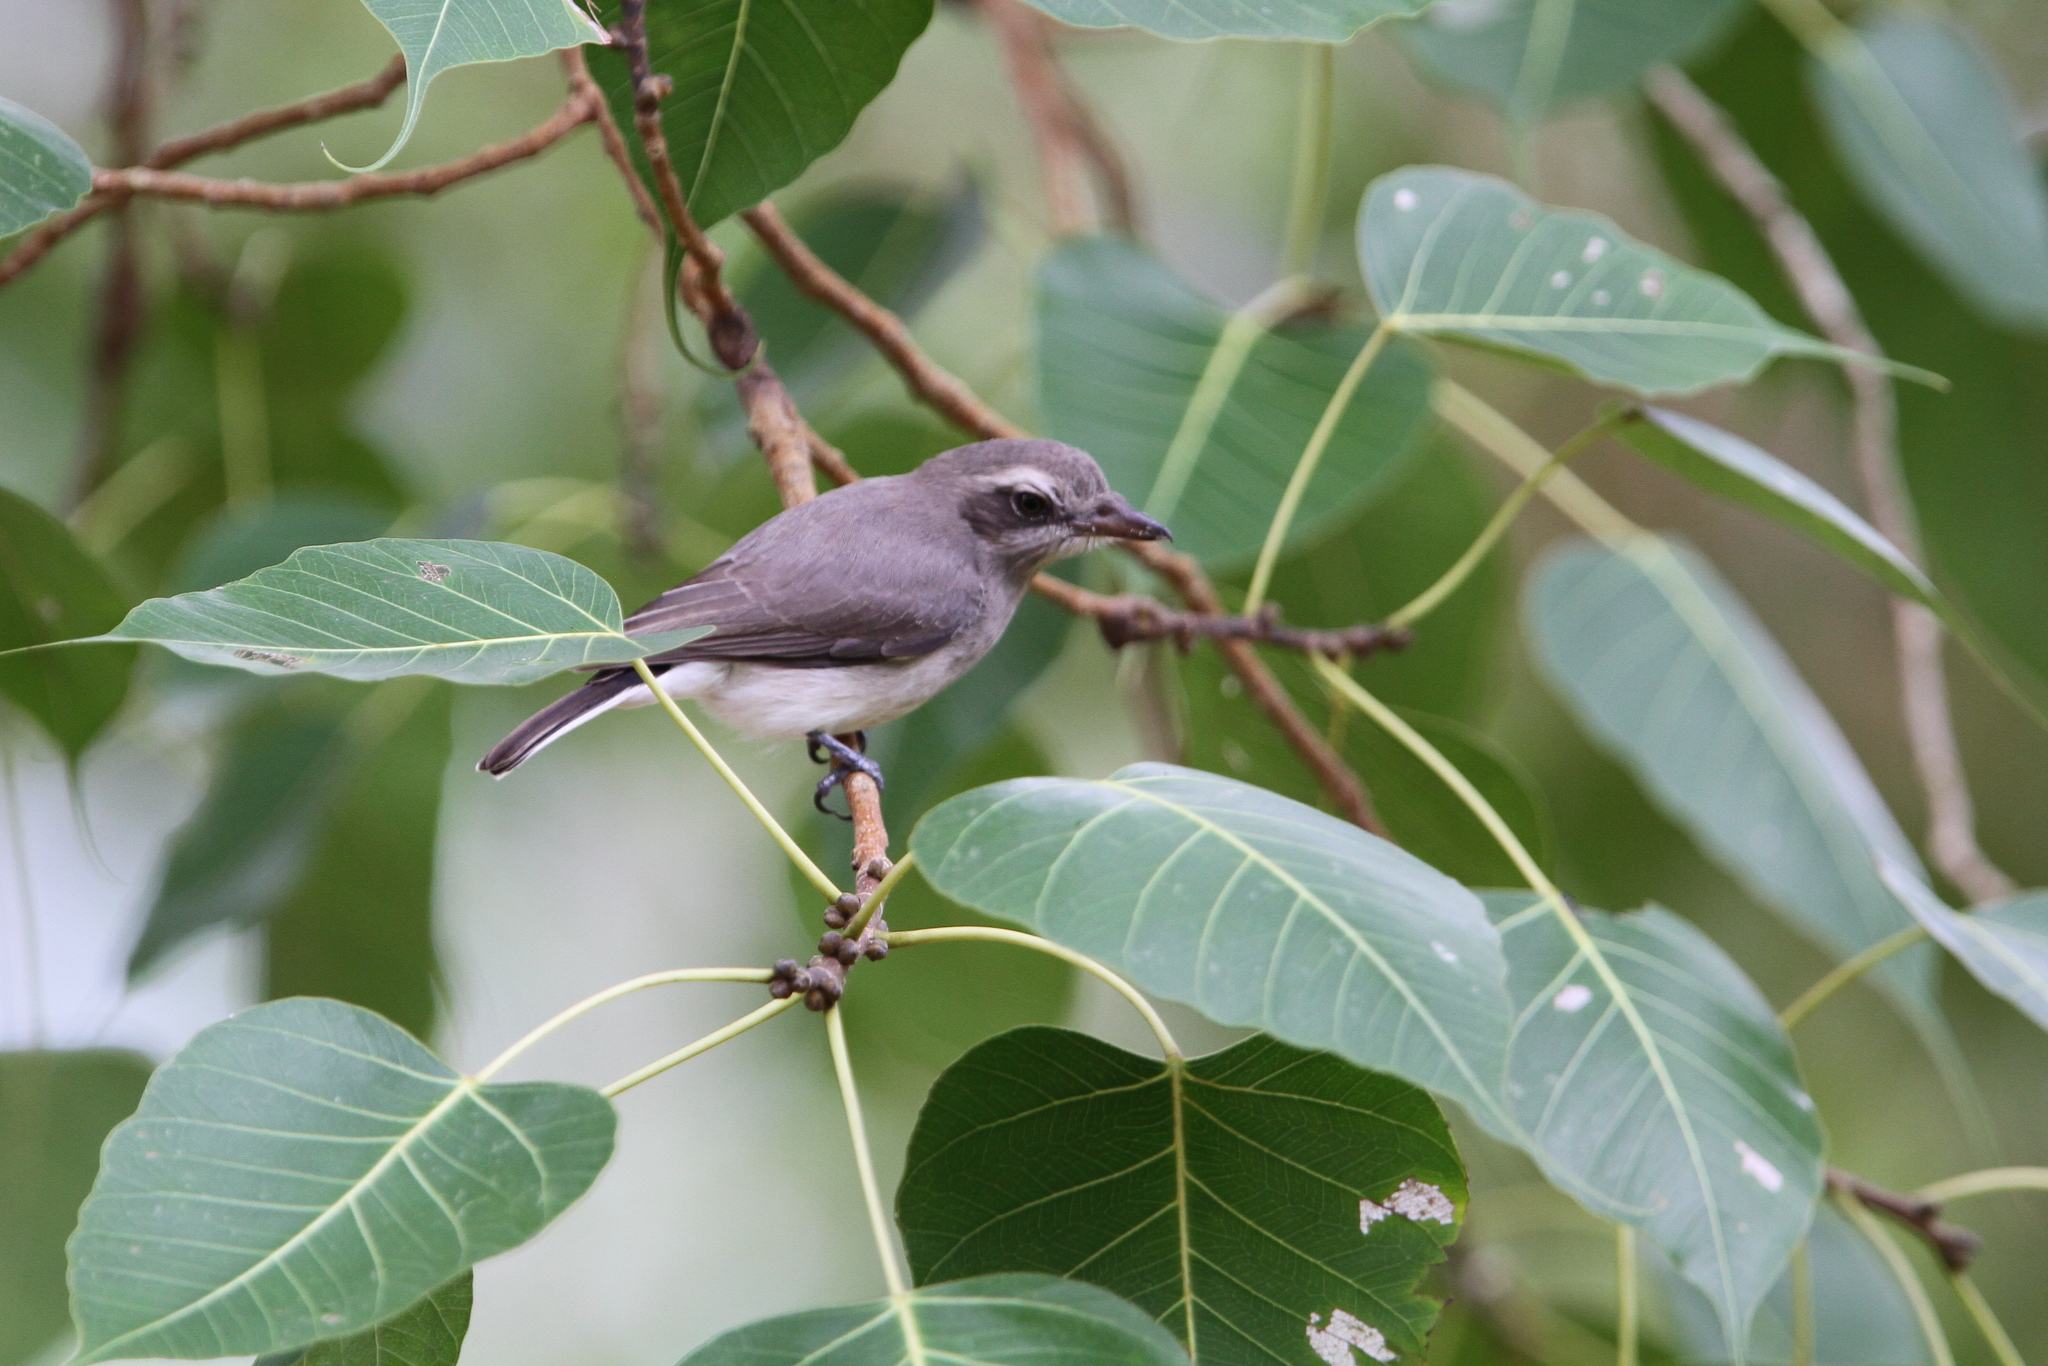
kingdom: Animalia
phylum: Chordata
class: Aves
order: Passeriformes
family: Tephrodornithidae
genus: Tephrodornis
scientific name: Tephrodornis affinis
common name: Sri lanka woodshrike
